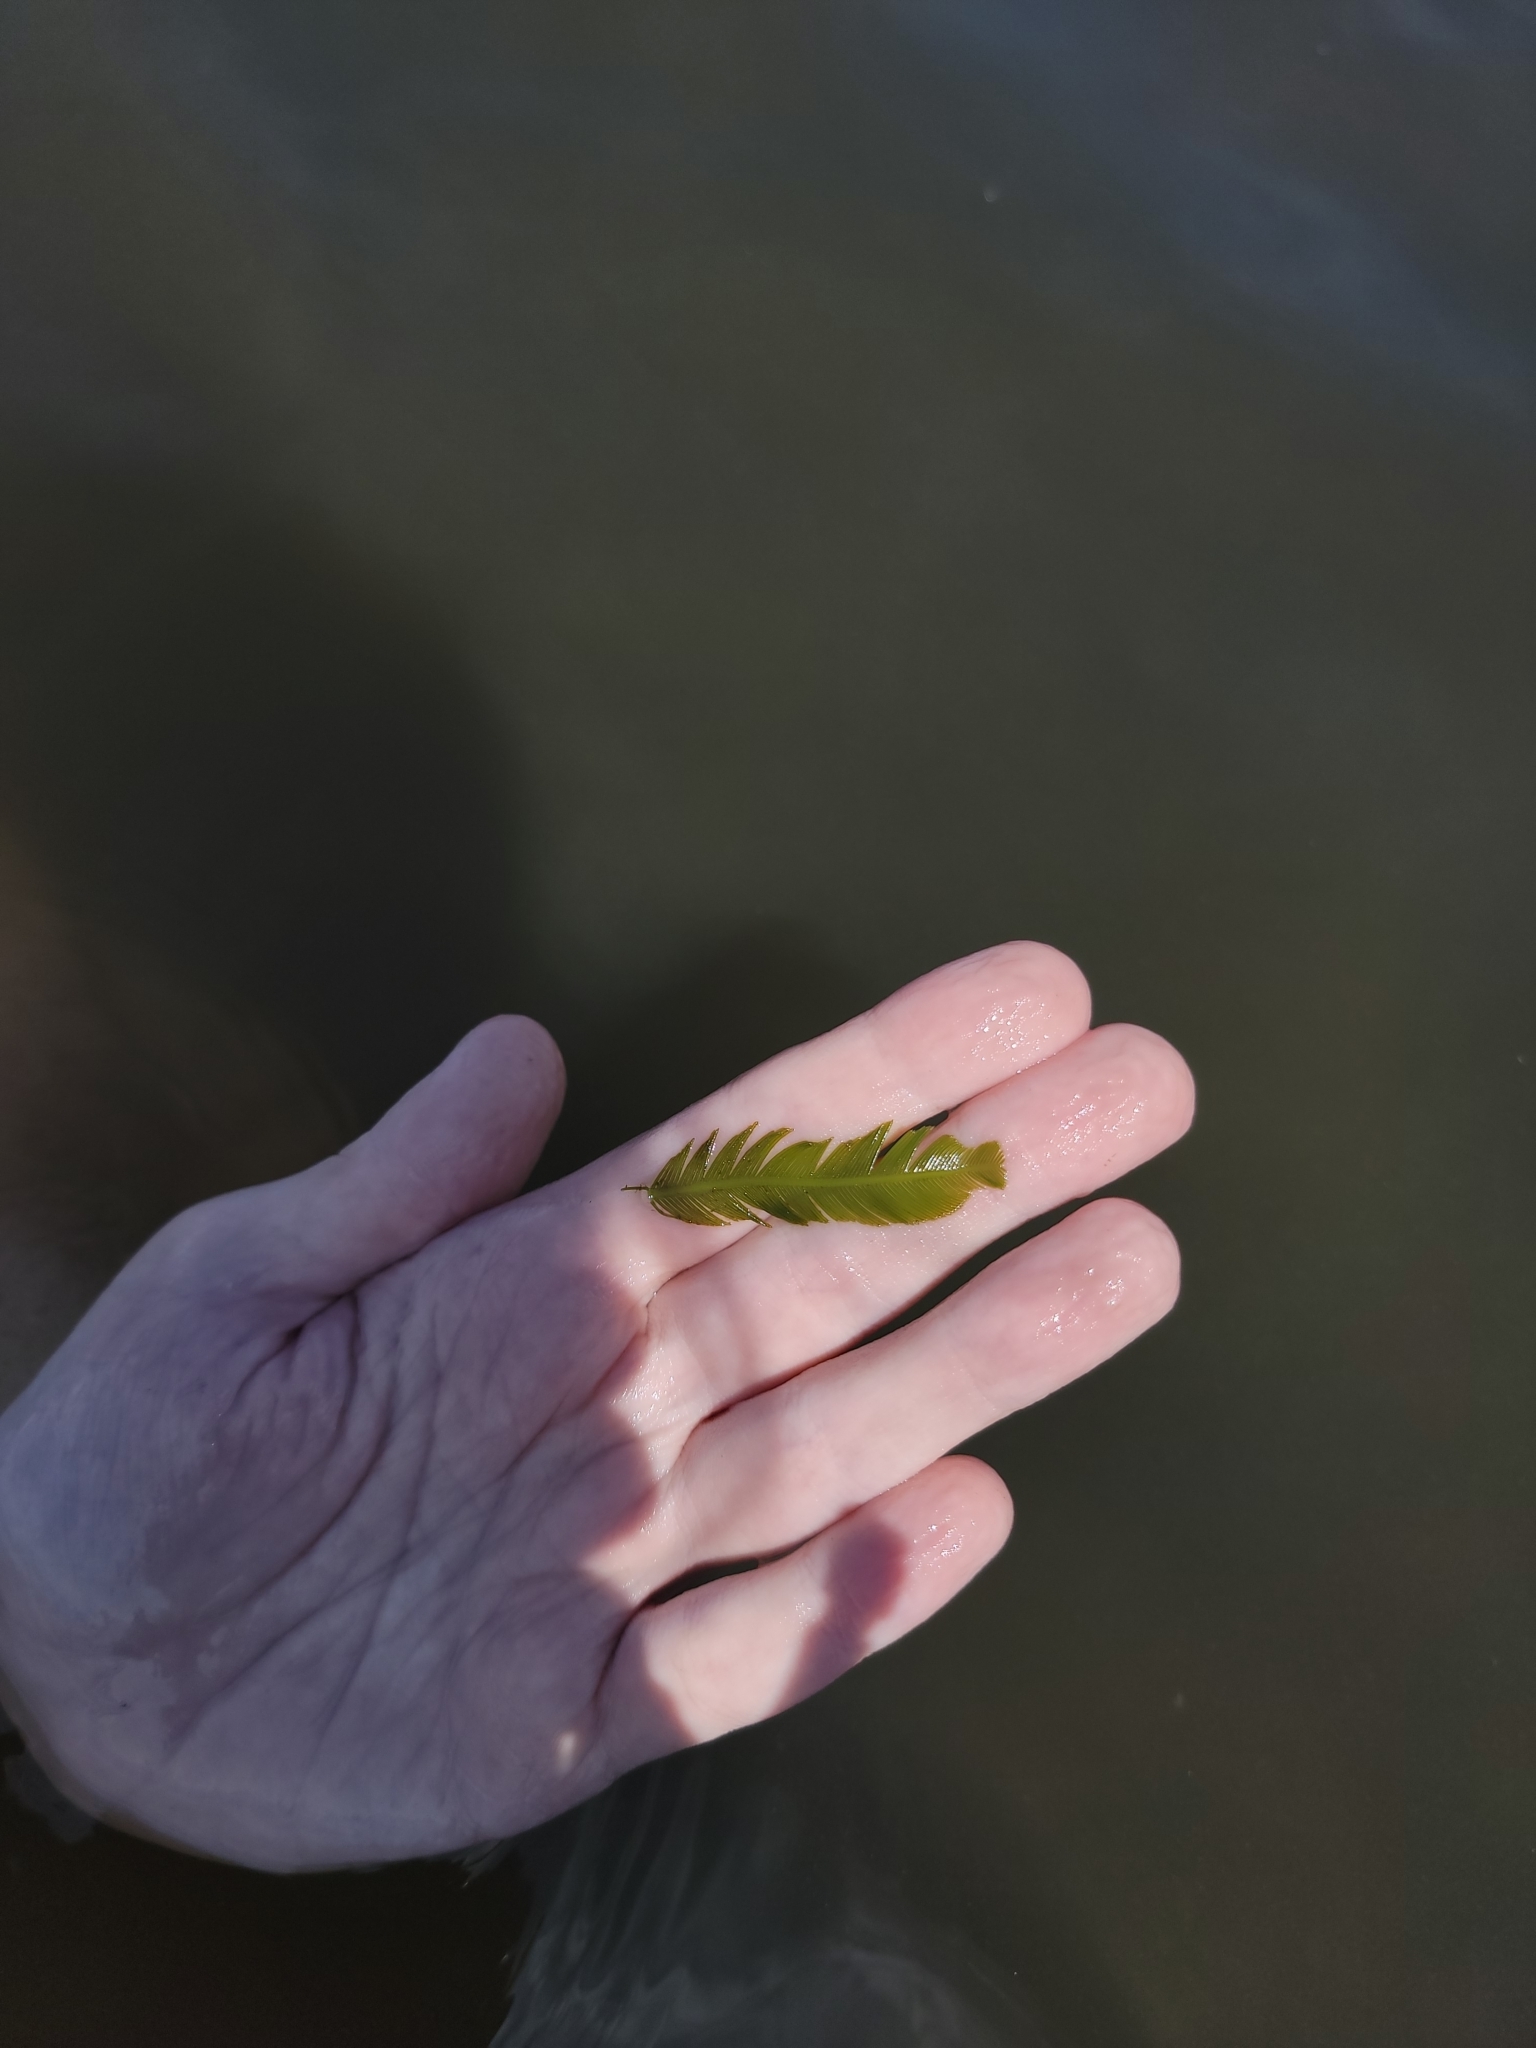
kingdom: Plantae
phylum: Chlorophyta
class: Ulvophyceae
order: Bryopsidales
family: Caulerpaceae
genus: Caulerpa
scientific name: Caulerpa sertularioides
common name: Green feather algae
